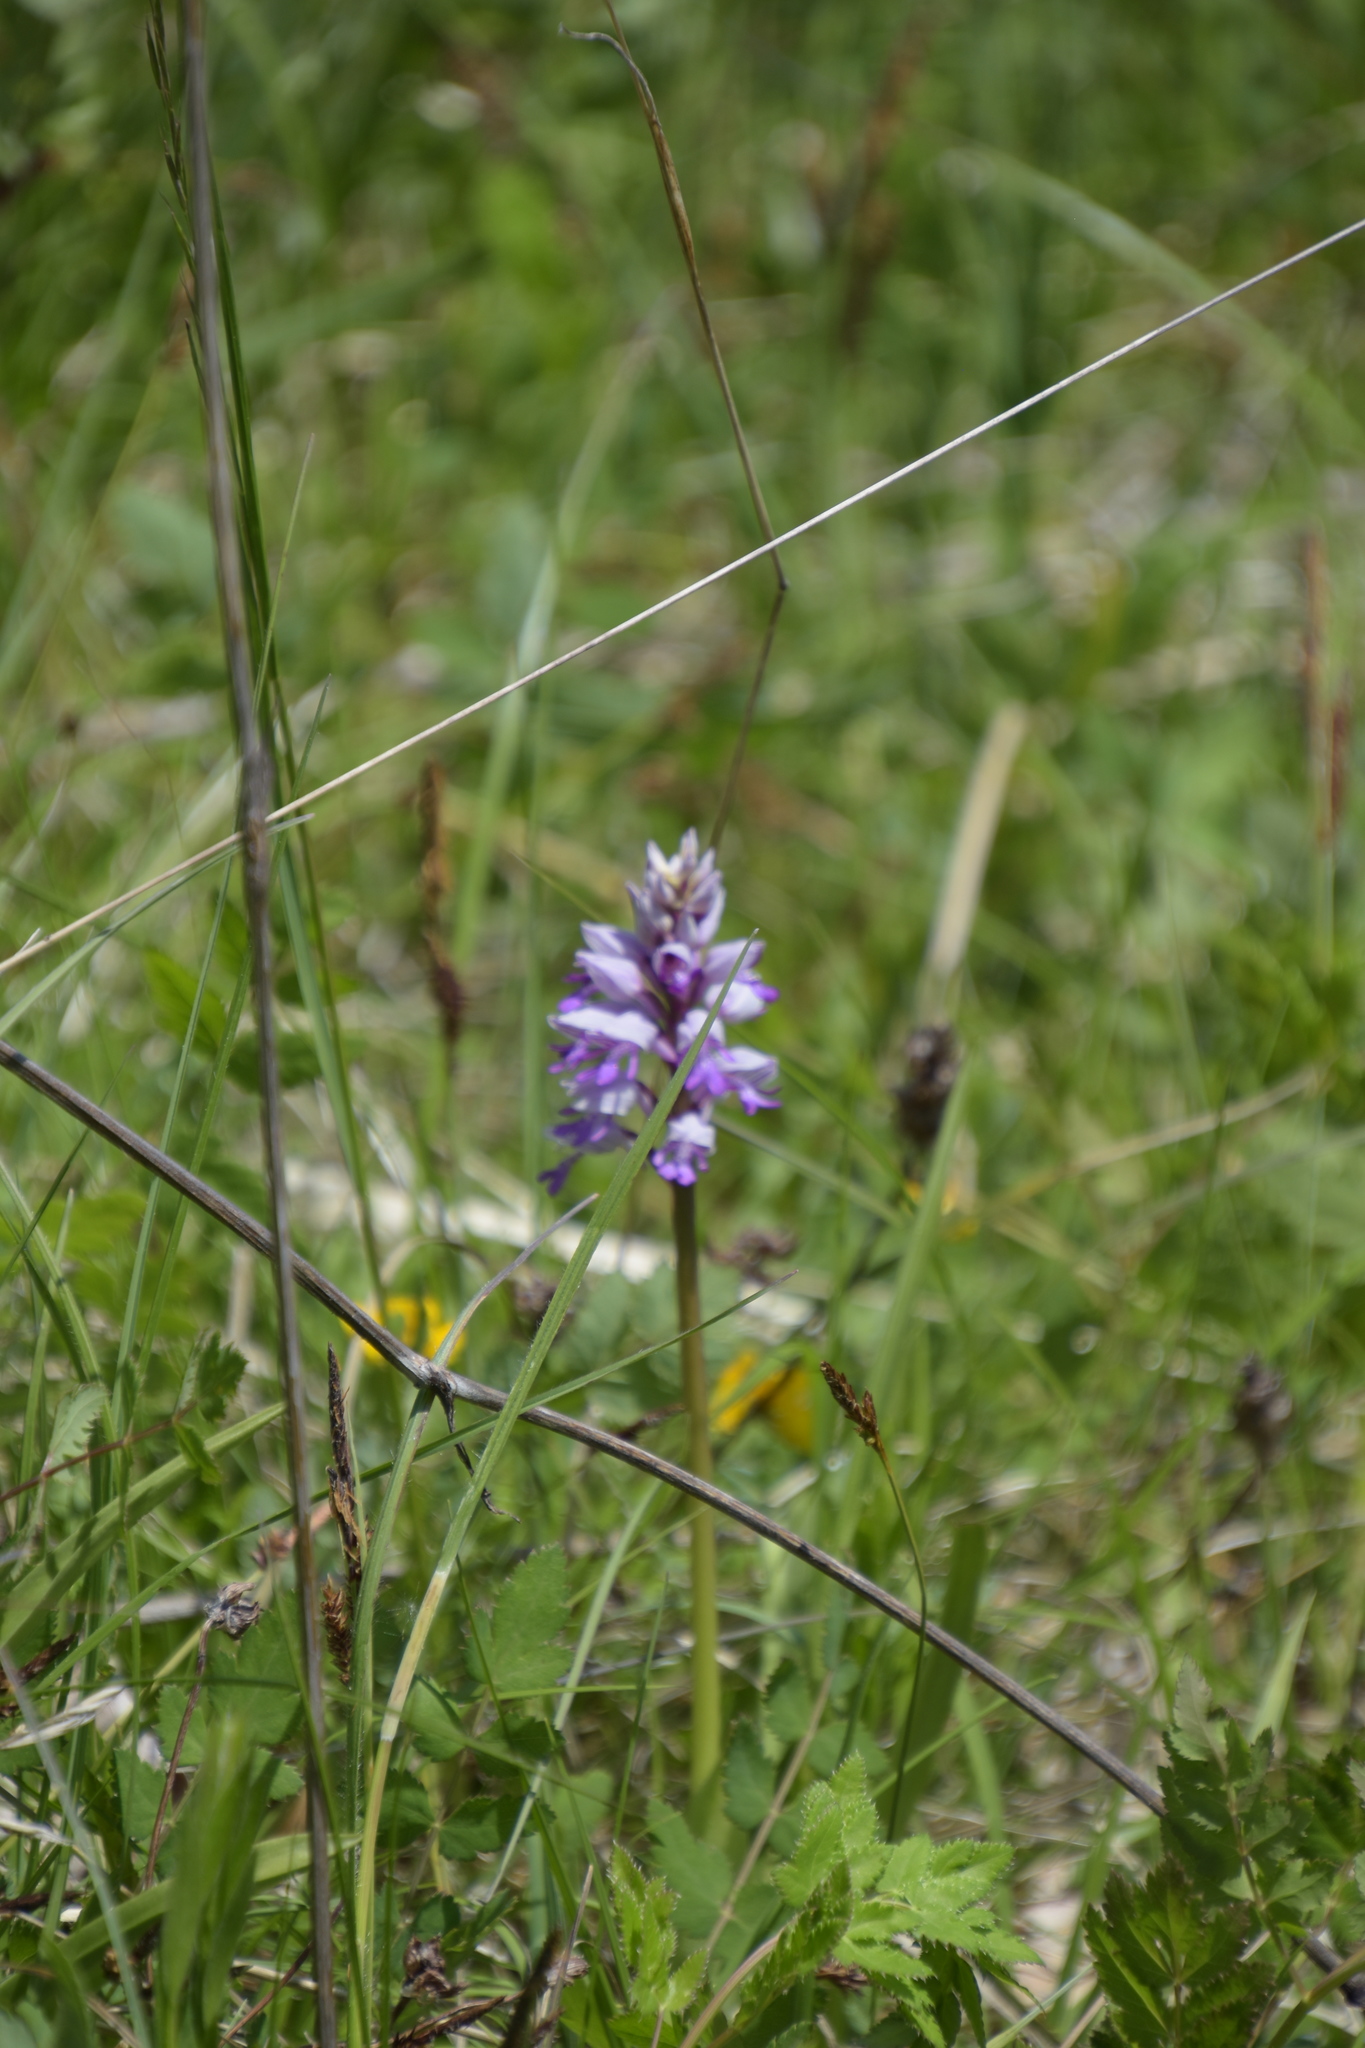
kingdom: Plantae
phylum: Tracheophyta
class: Liliopsida
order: Asparagales
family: Orchidaceae
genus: Orchis
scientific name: Orchis militaris
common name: Military orchid
